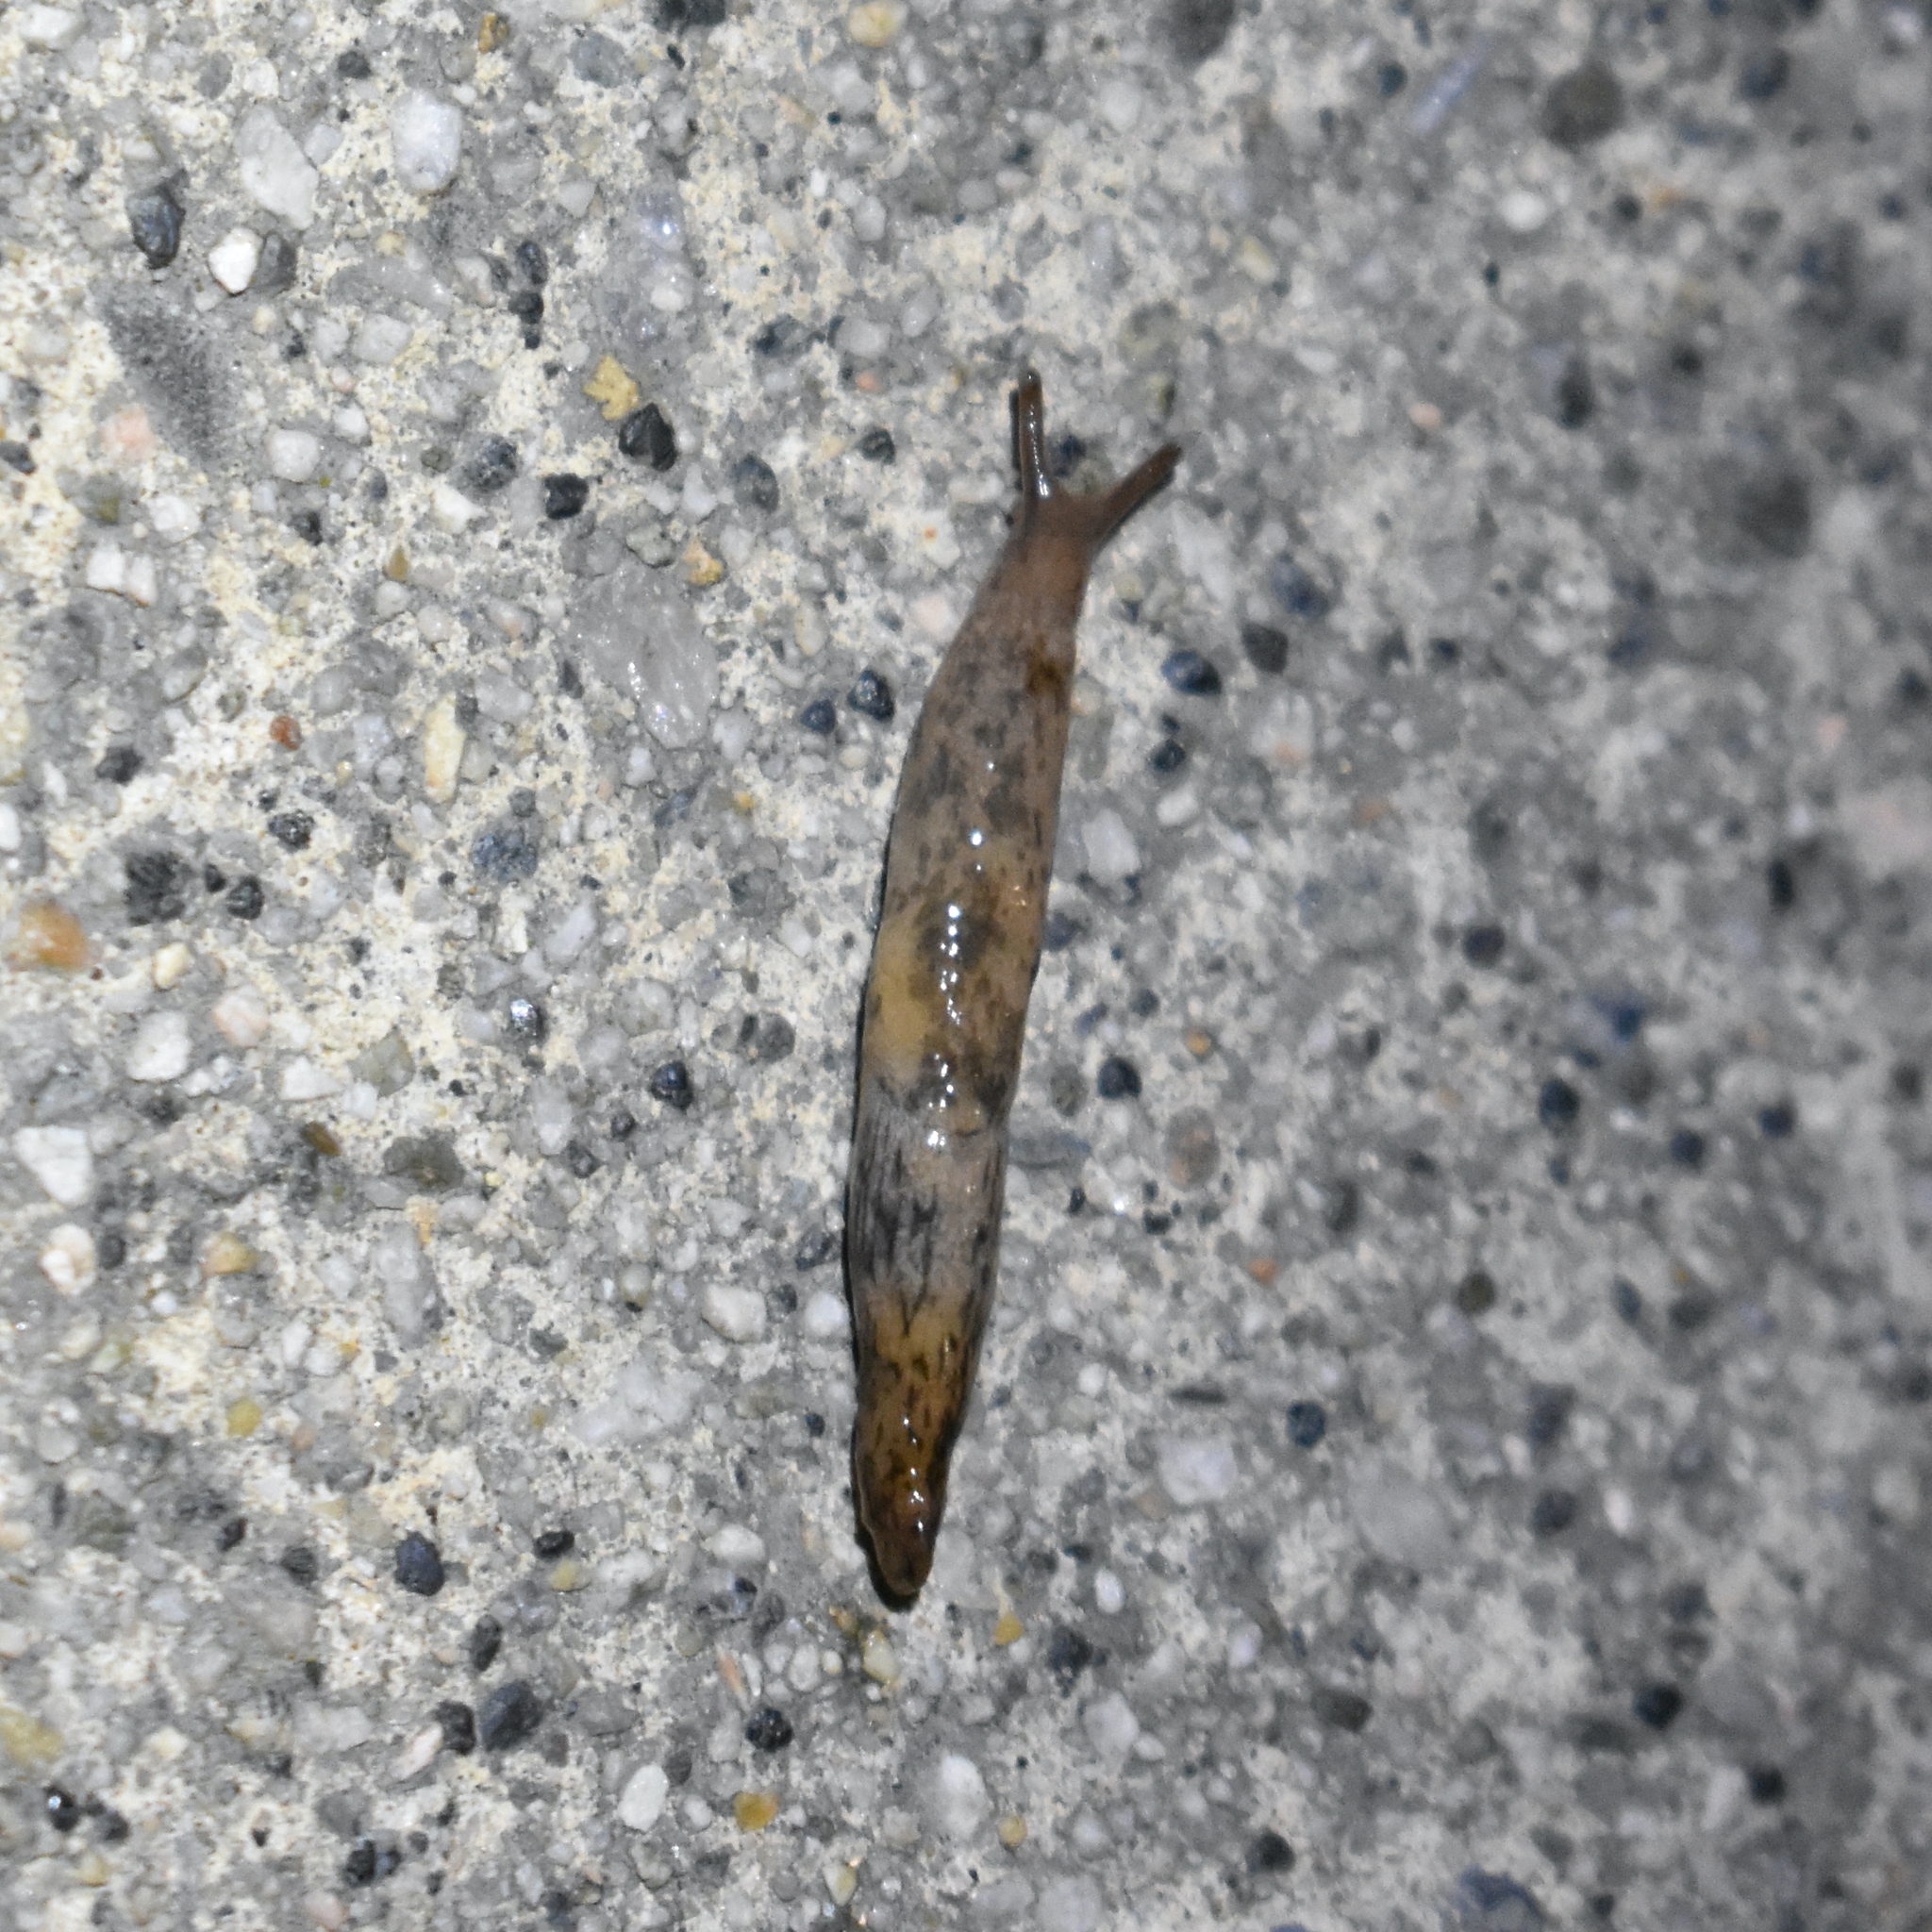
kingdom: Animalia
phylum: Mollusca
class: Gastropoda
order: Stylommatophora
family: Agriolimacidae
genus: Deroceras
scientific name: Deroceras reticulatum
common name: Gray field slug
